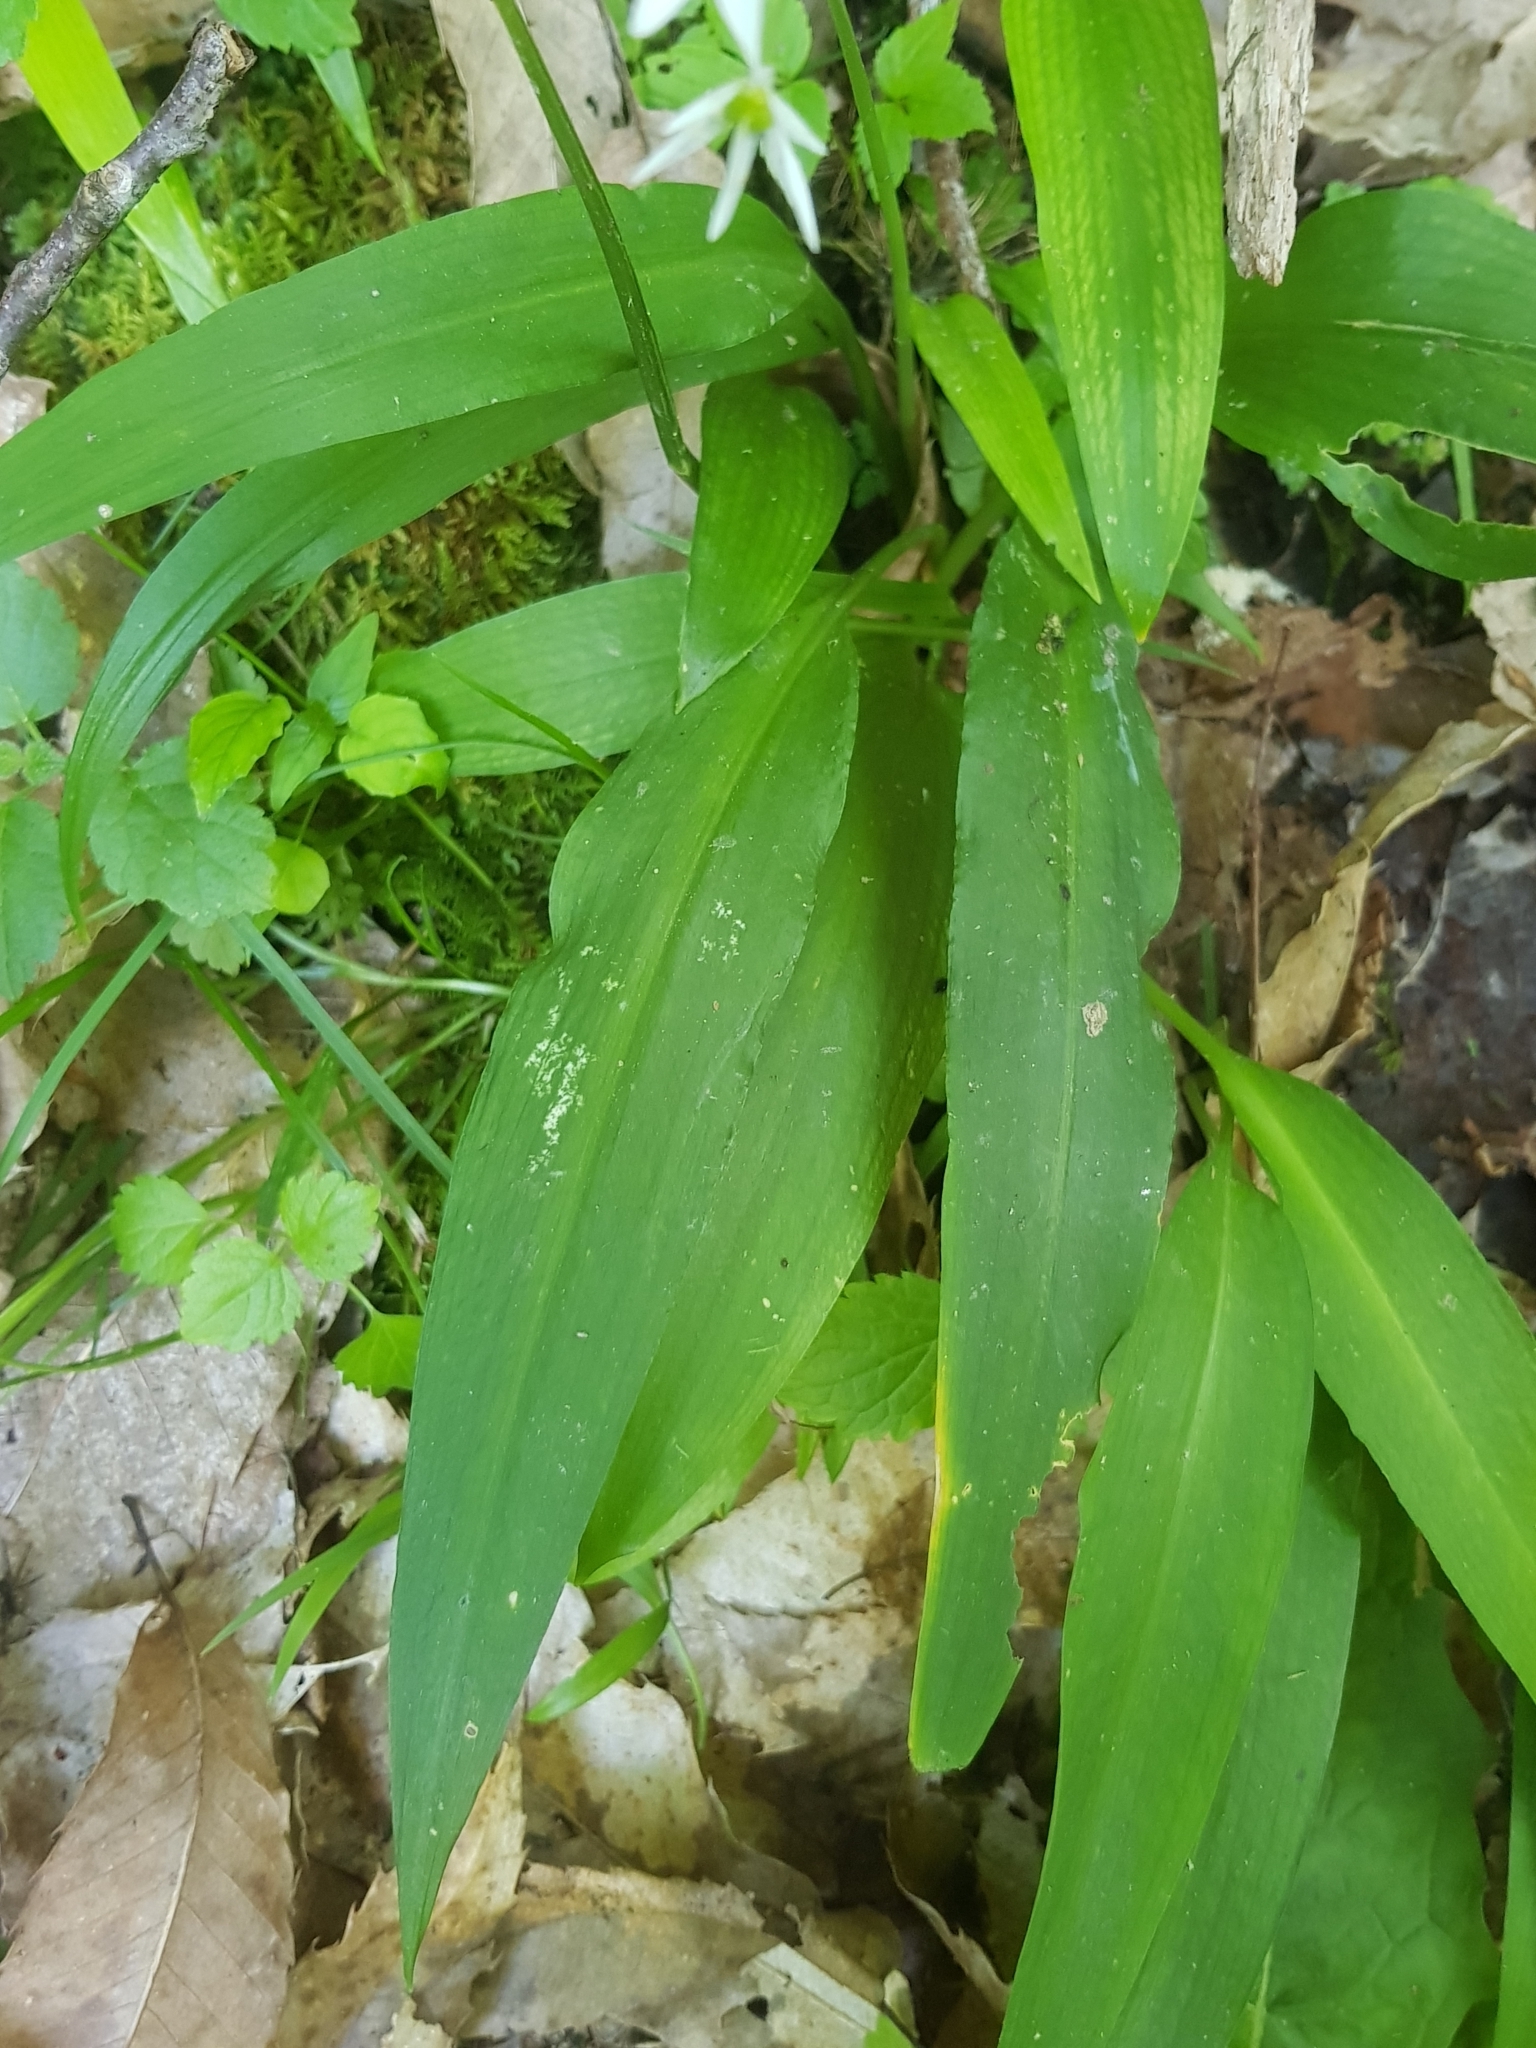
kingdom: Plantae
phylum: Tracheophyta
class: Liliopsida
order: Asparagales
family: Amaryllidaceae
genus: Allium
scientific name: Allium ursinum
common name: Ramsons
